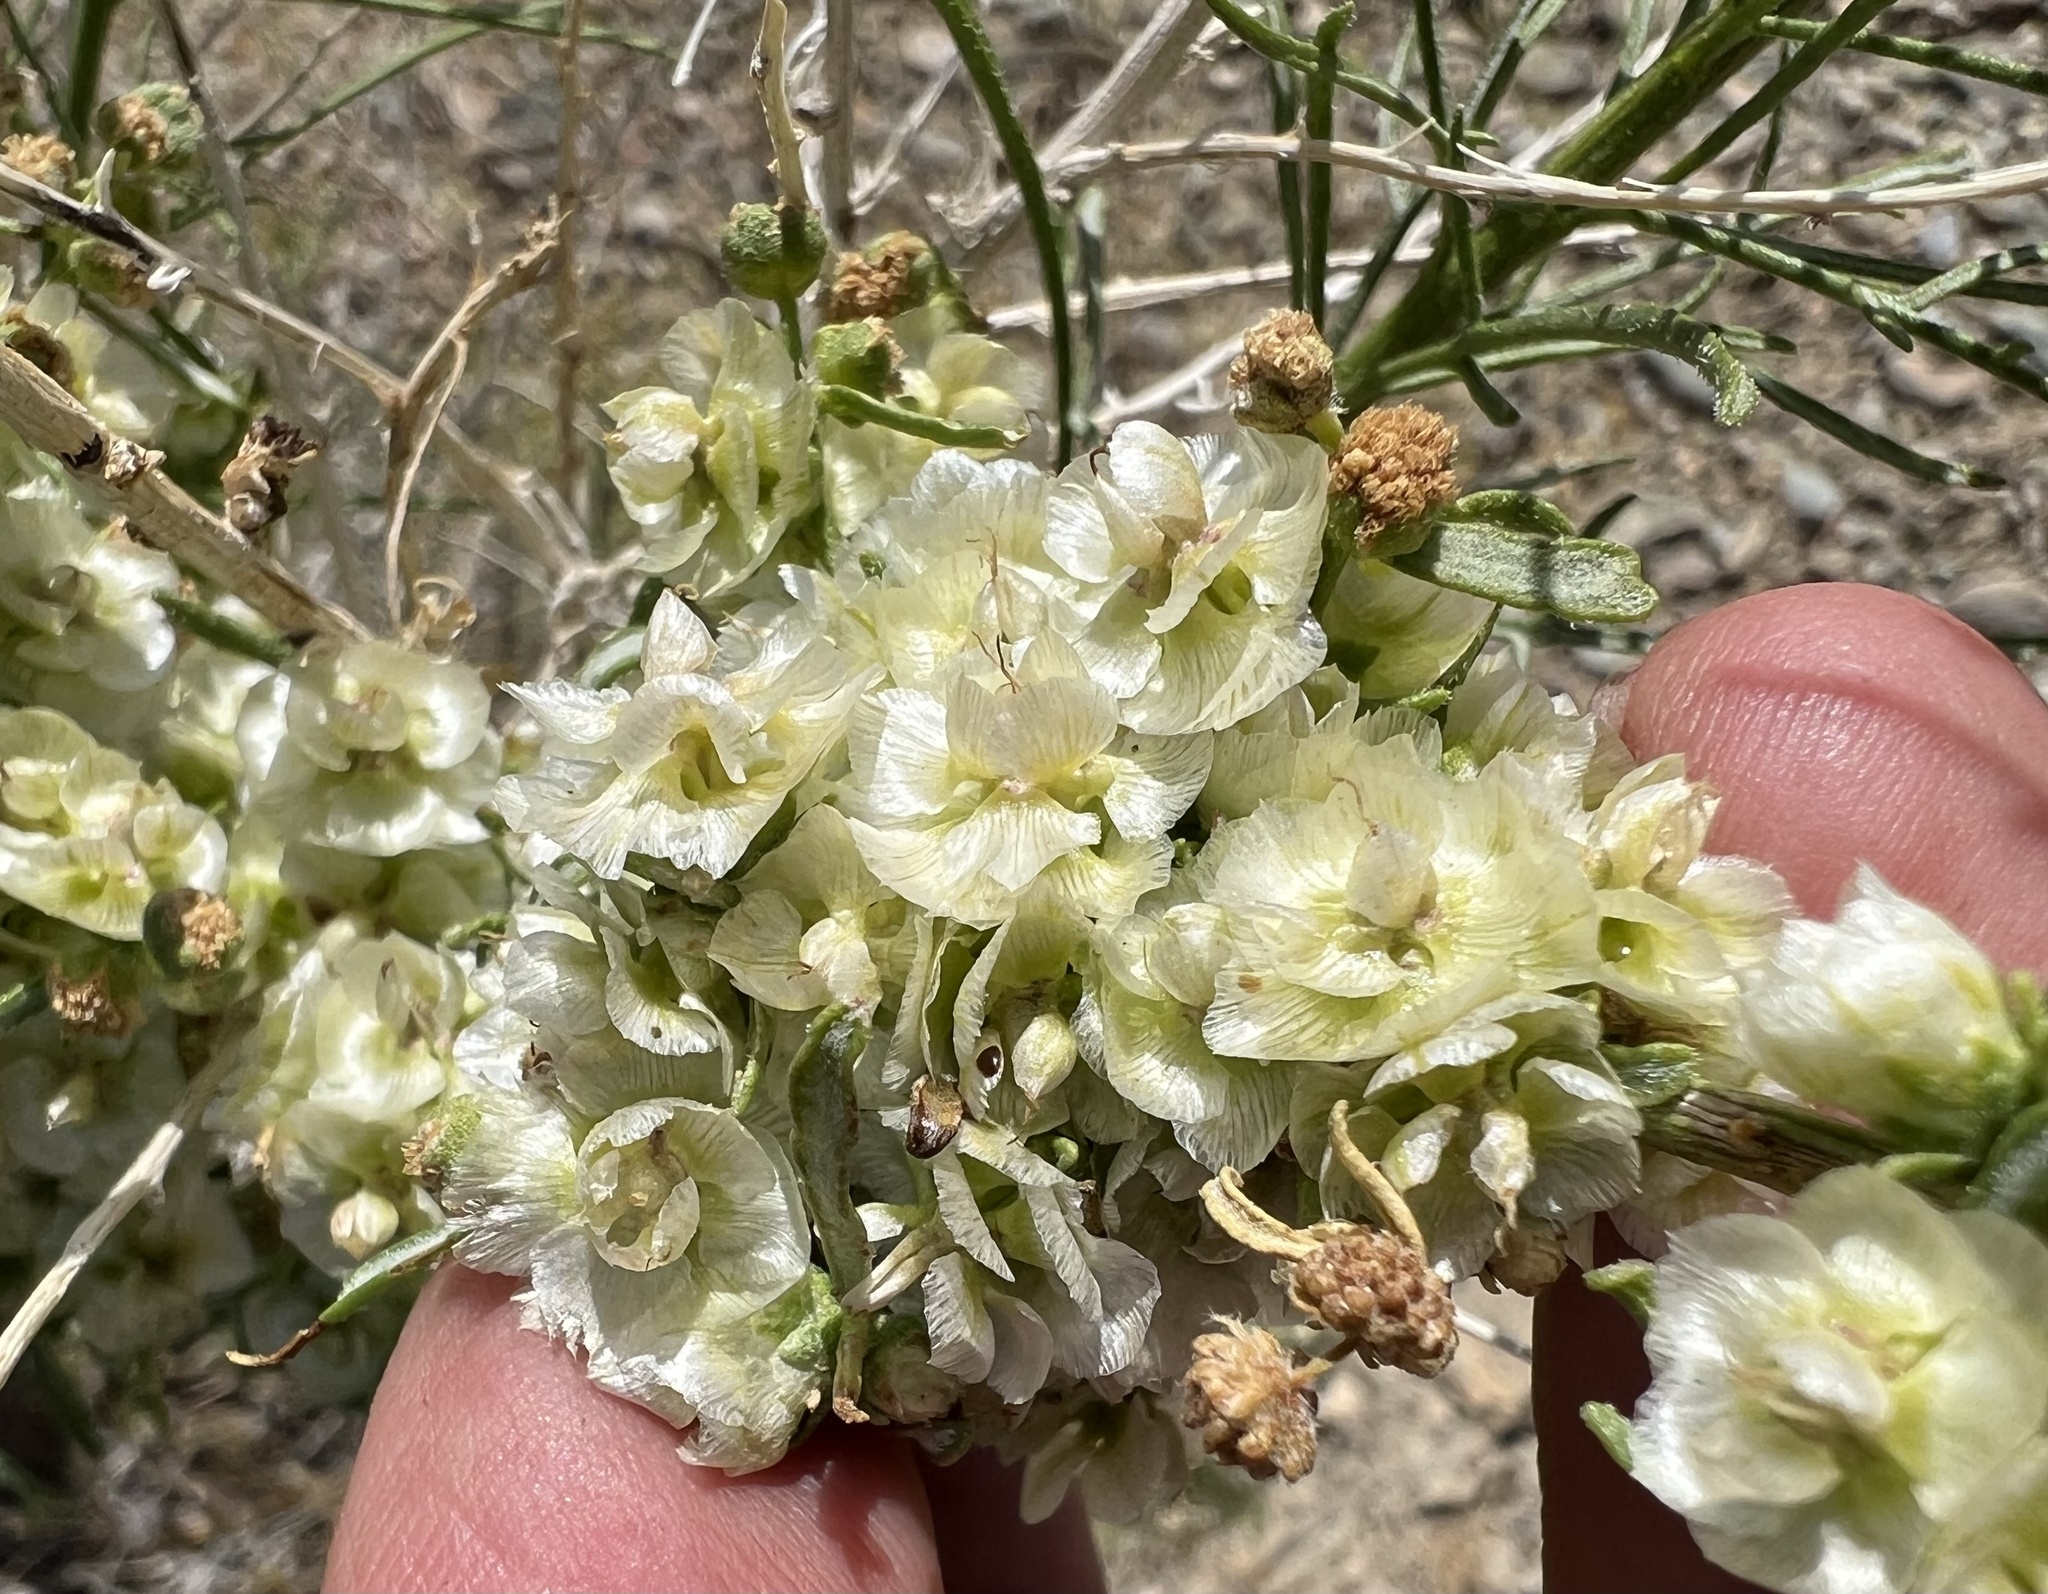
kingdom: Plantae
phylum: Tracheophyta
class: Magnoliopsida
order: Asterales
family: Asteraceae
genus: Ambrosia
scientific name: Ambrosia salsola
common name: Burrobrush
